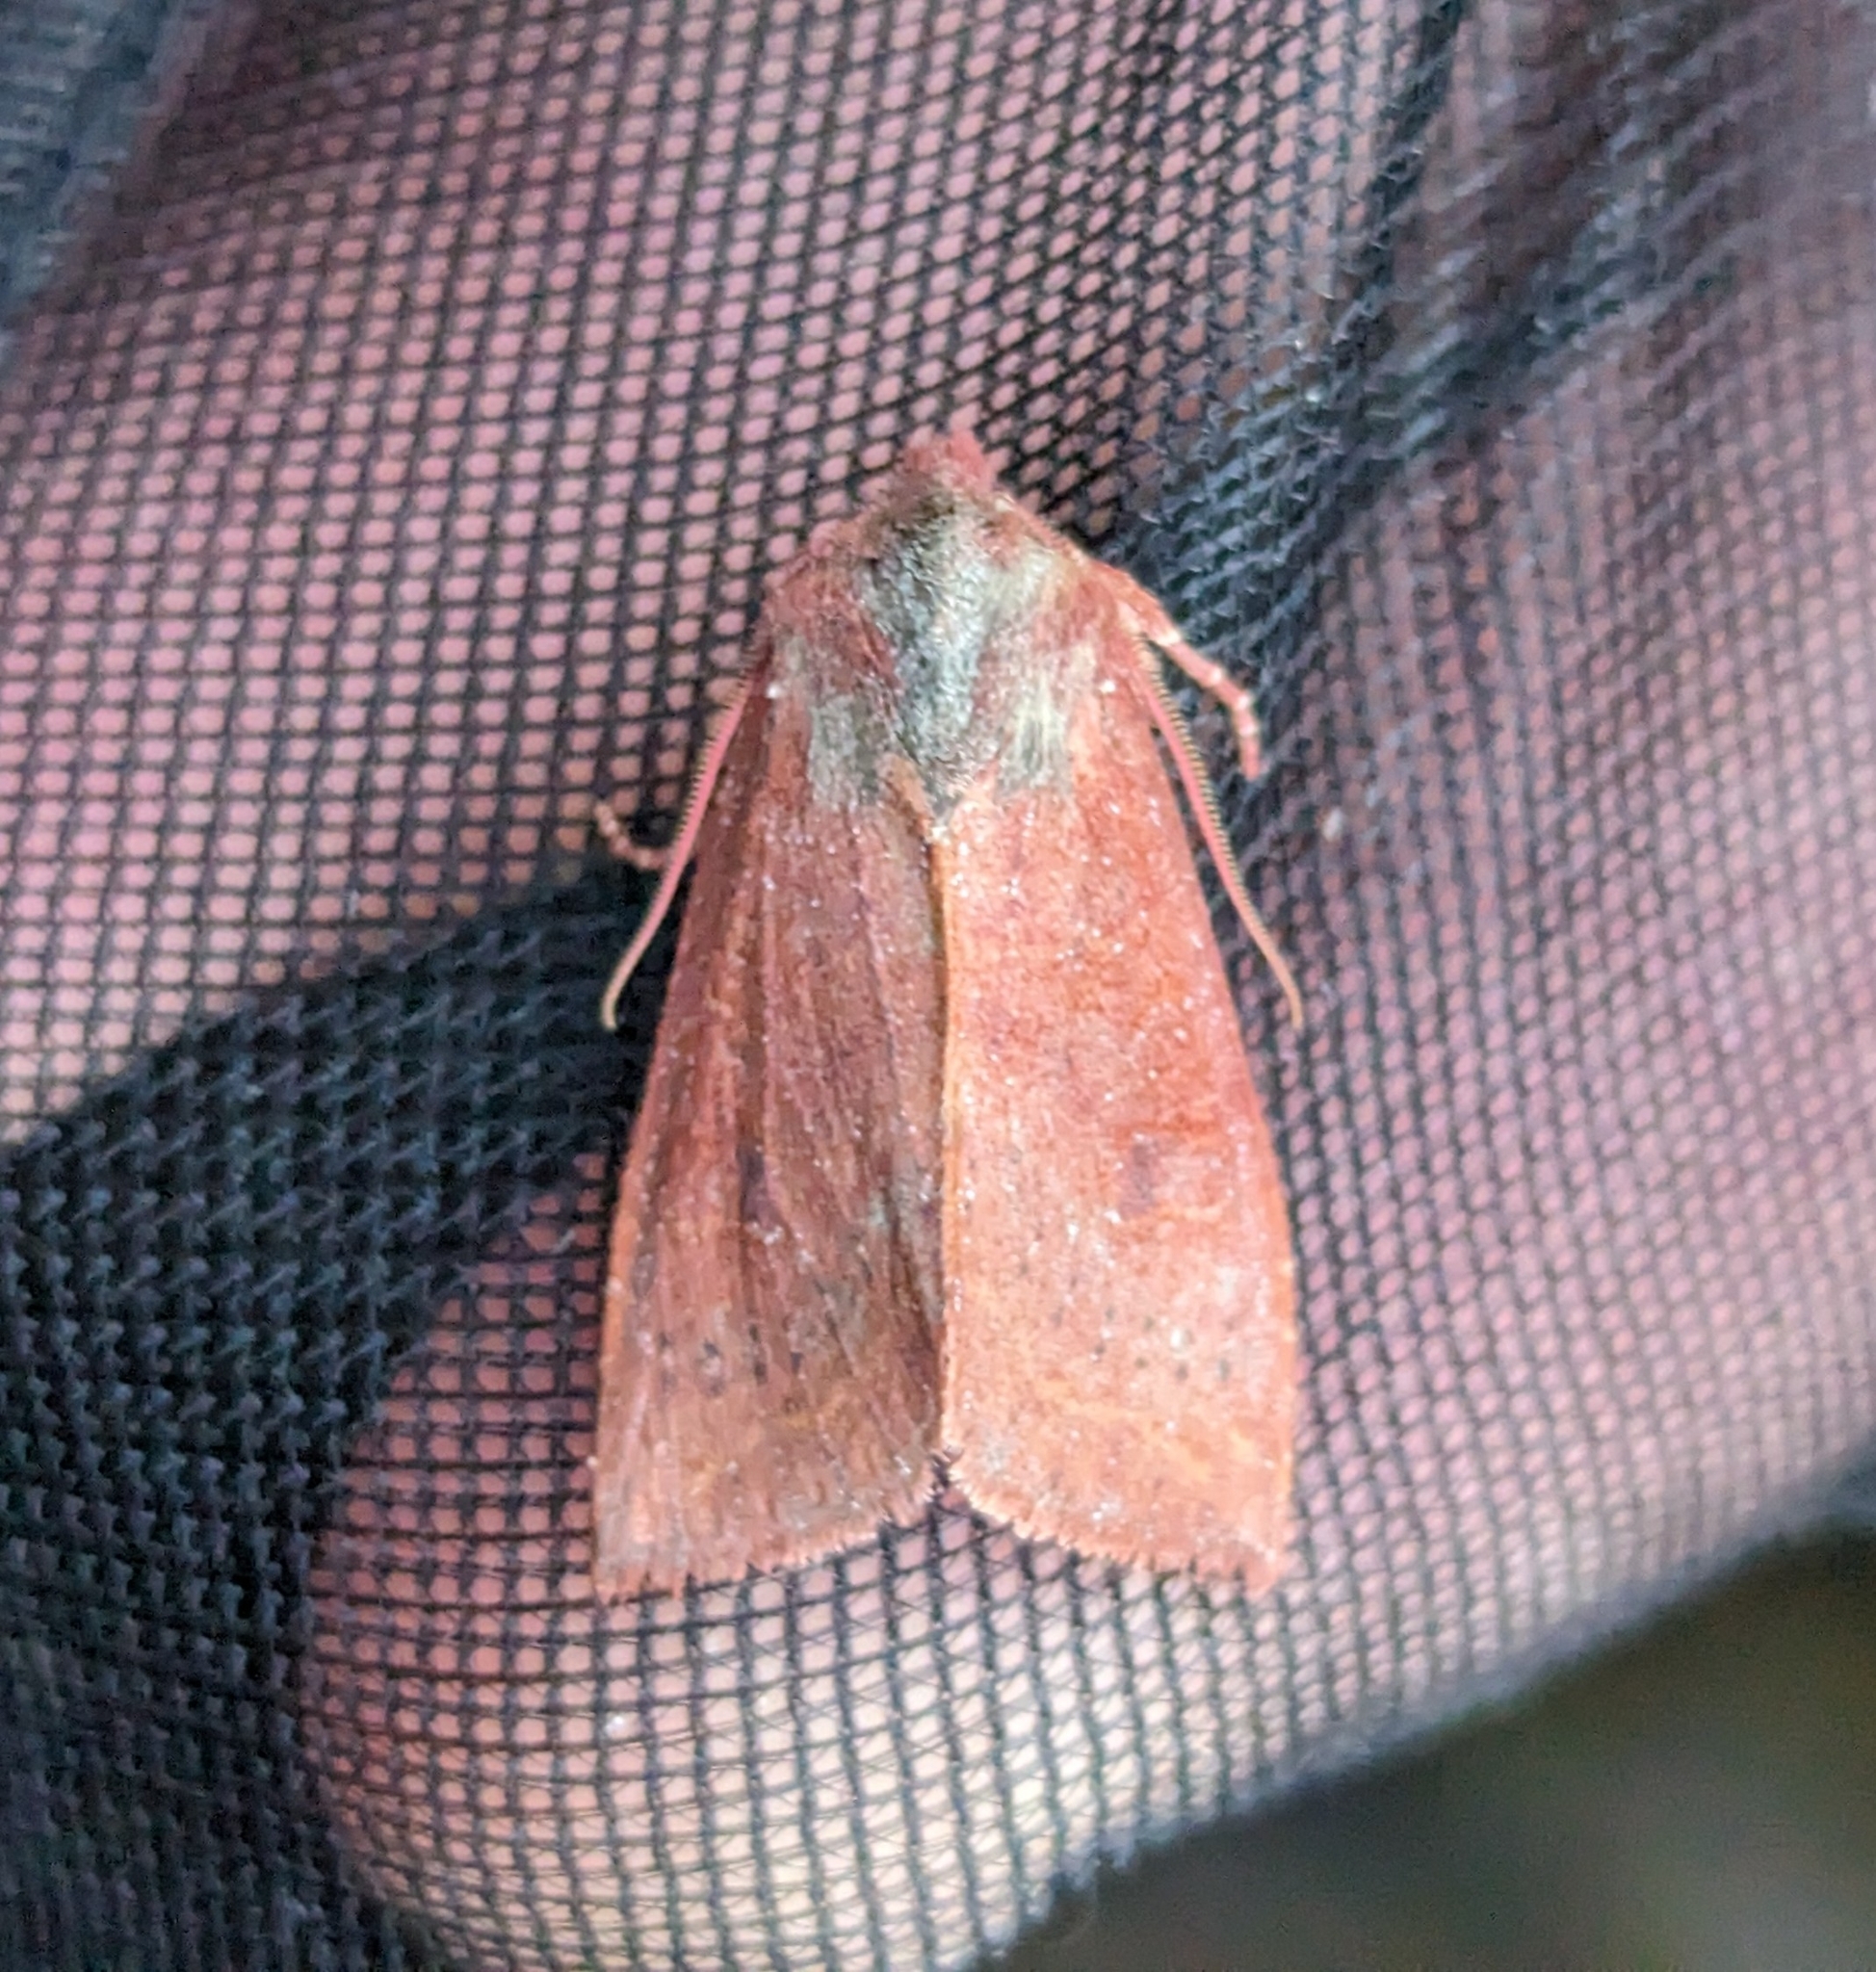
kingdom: Animalia
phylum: Arthropoda
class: Insecta
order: Lepidoptera
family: Noctuidae
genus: Orthosia
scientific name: Orthosia transparens
